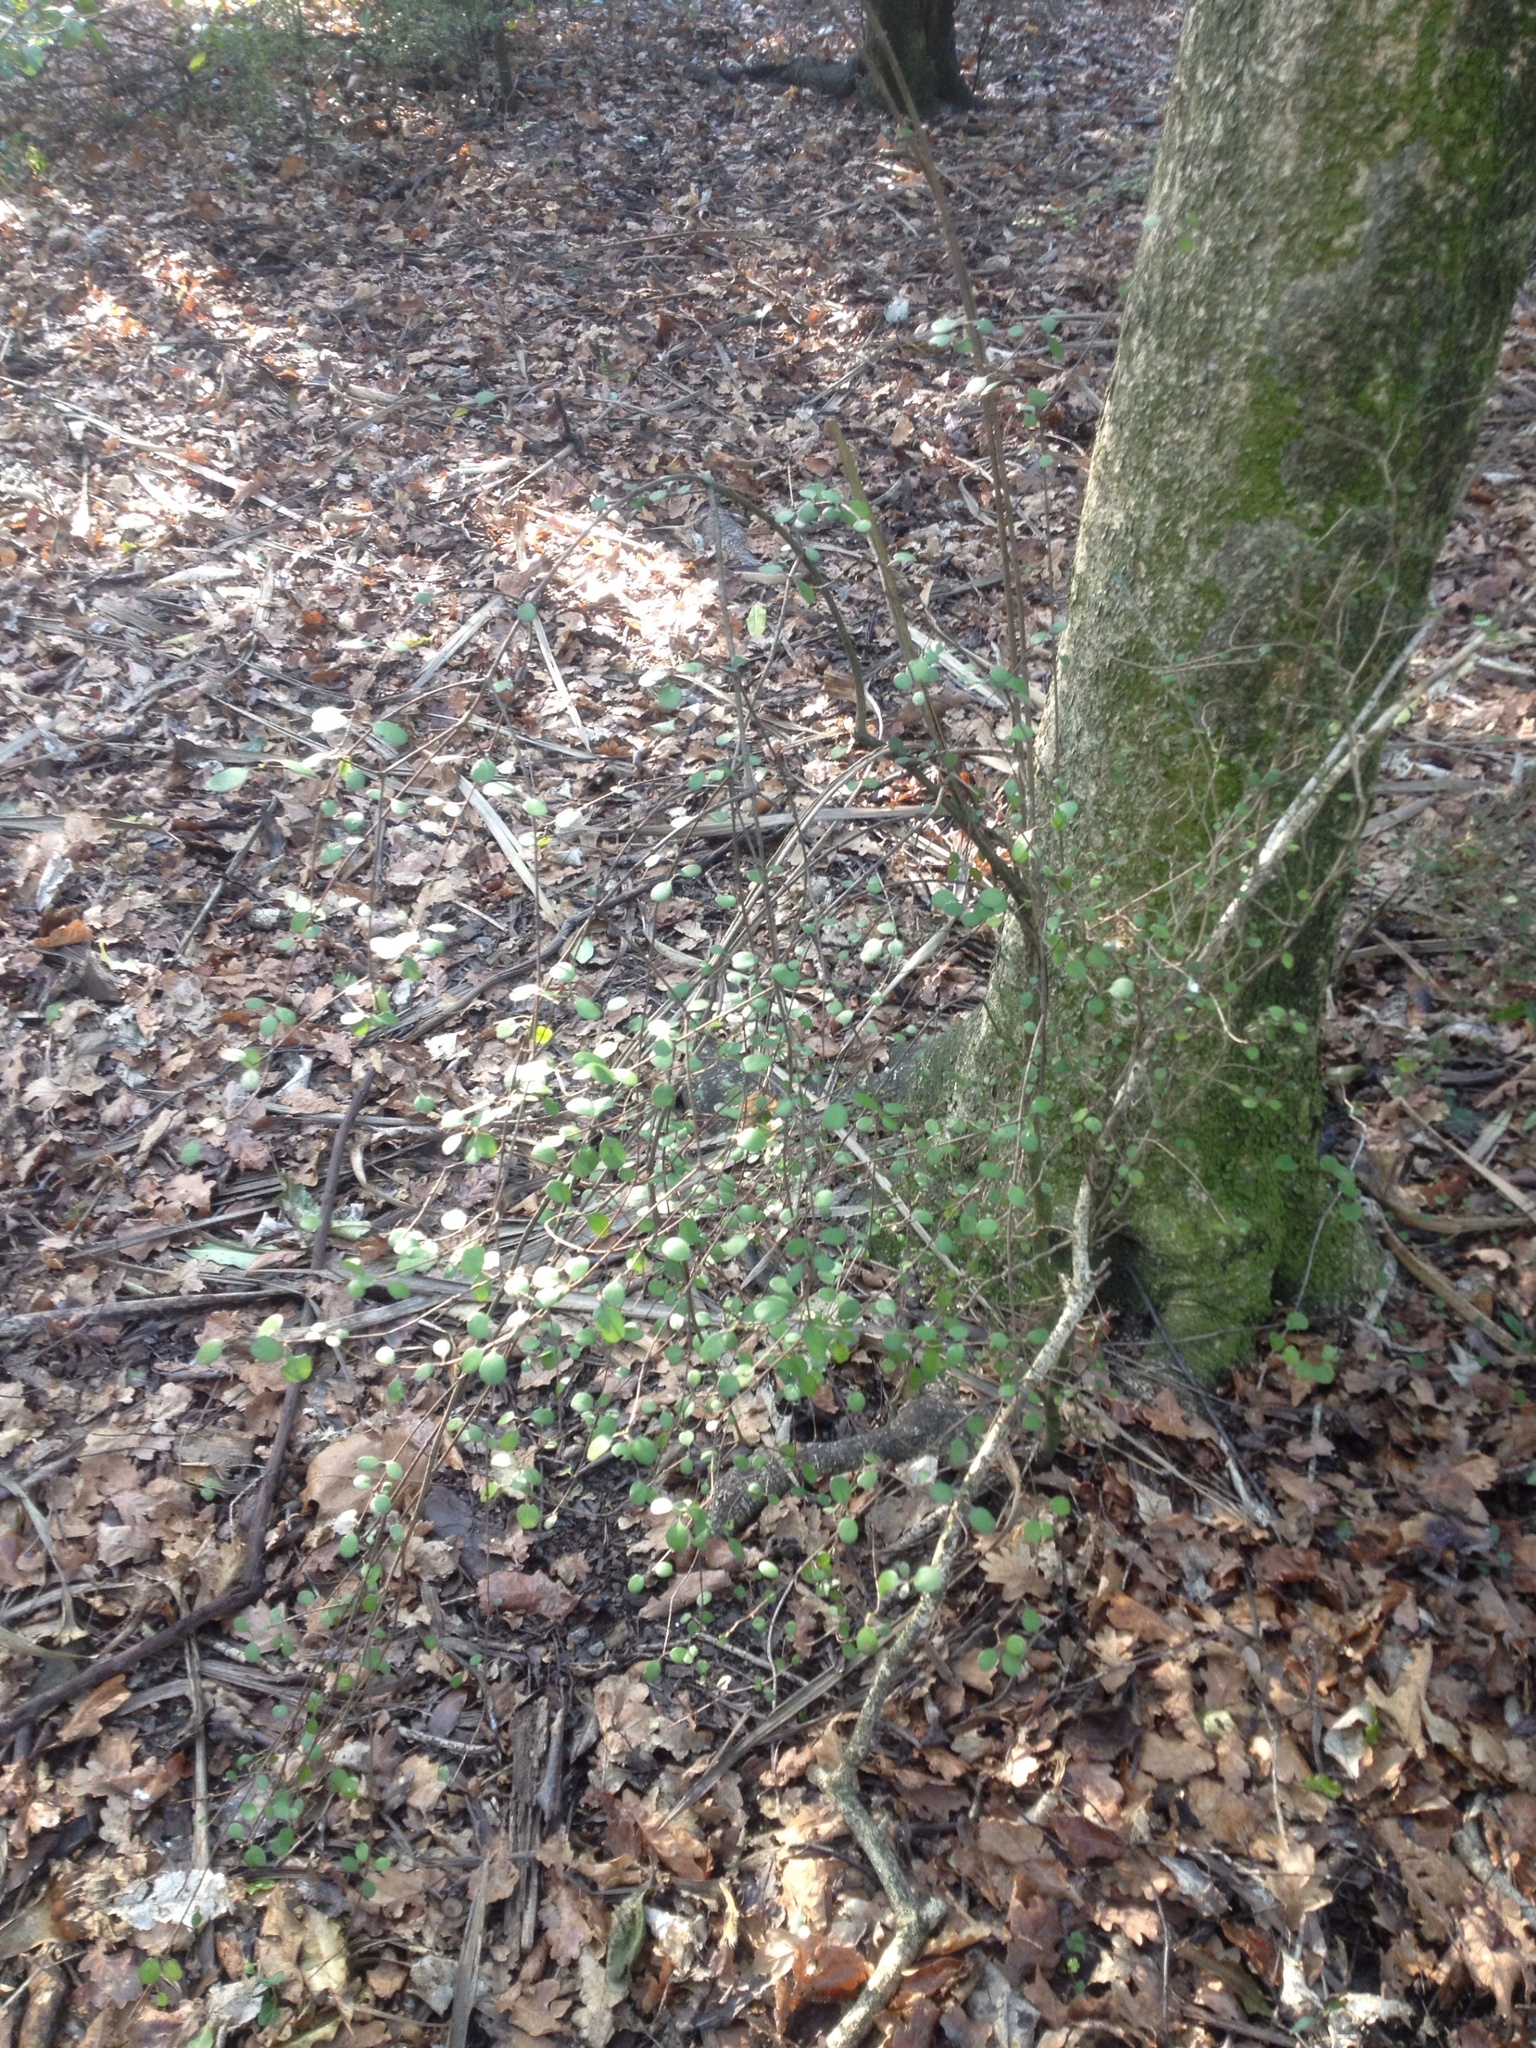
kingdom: Plantae
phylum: Tracheophyta
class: Magnoliopsida
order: Gentianales
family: Rubiaceae
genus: Coprosma
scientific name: Coprosma crassifolia
